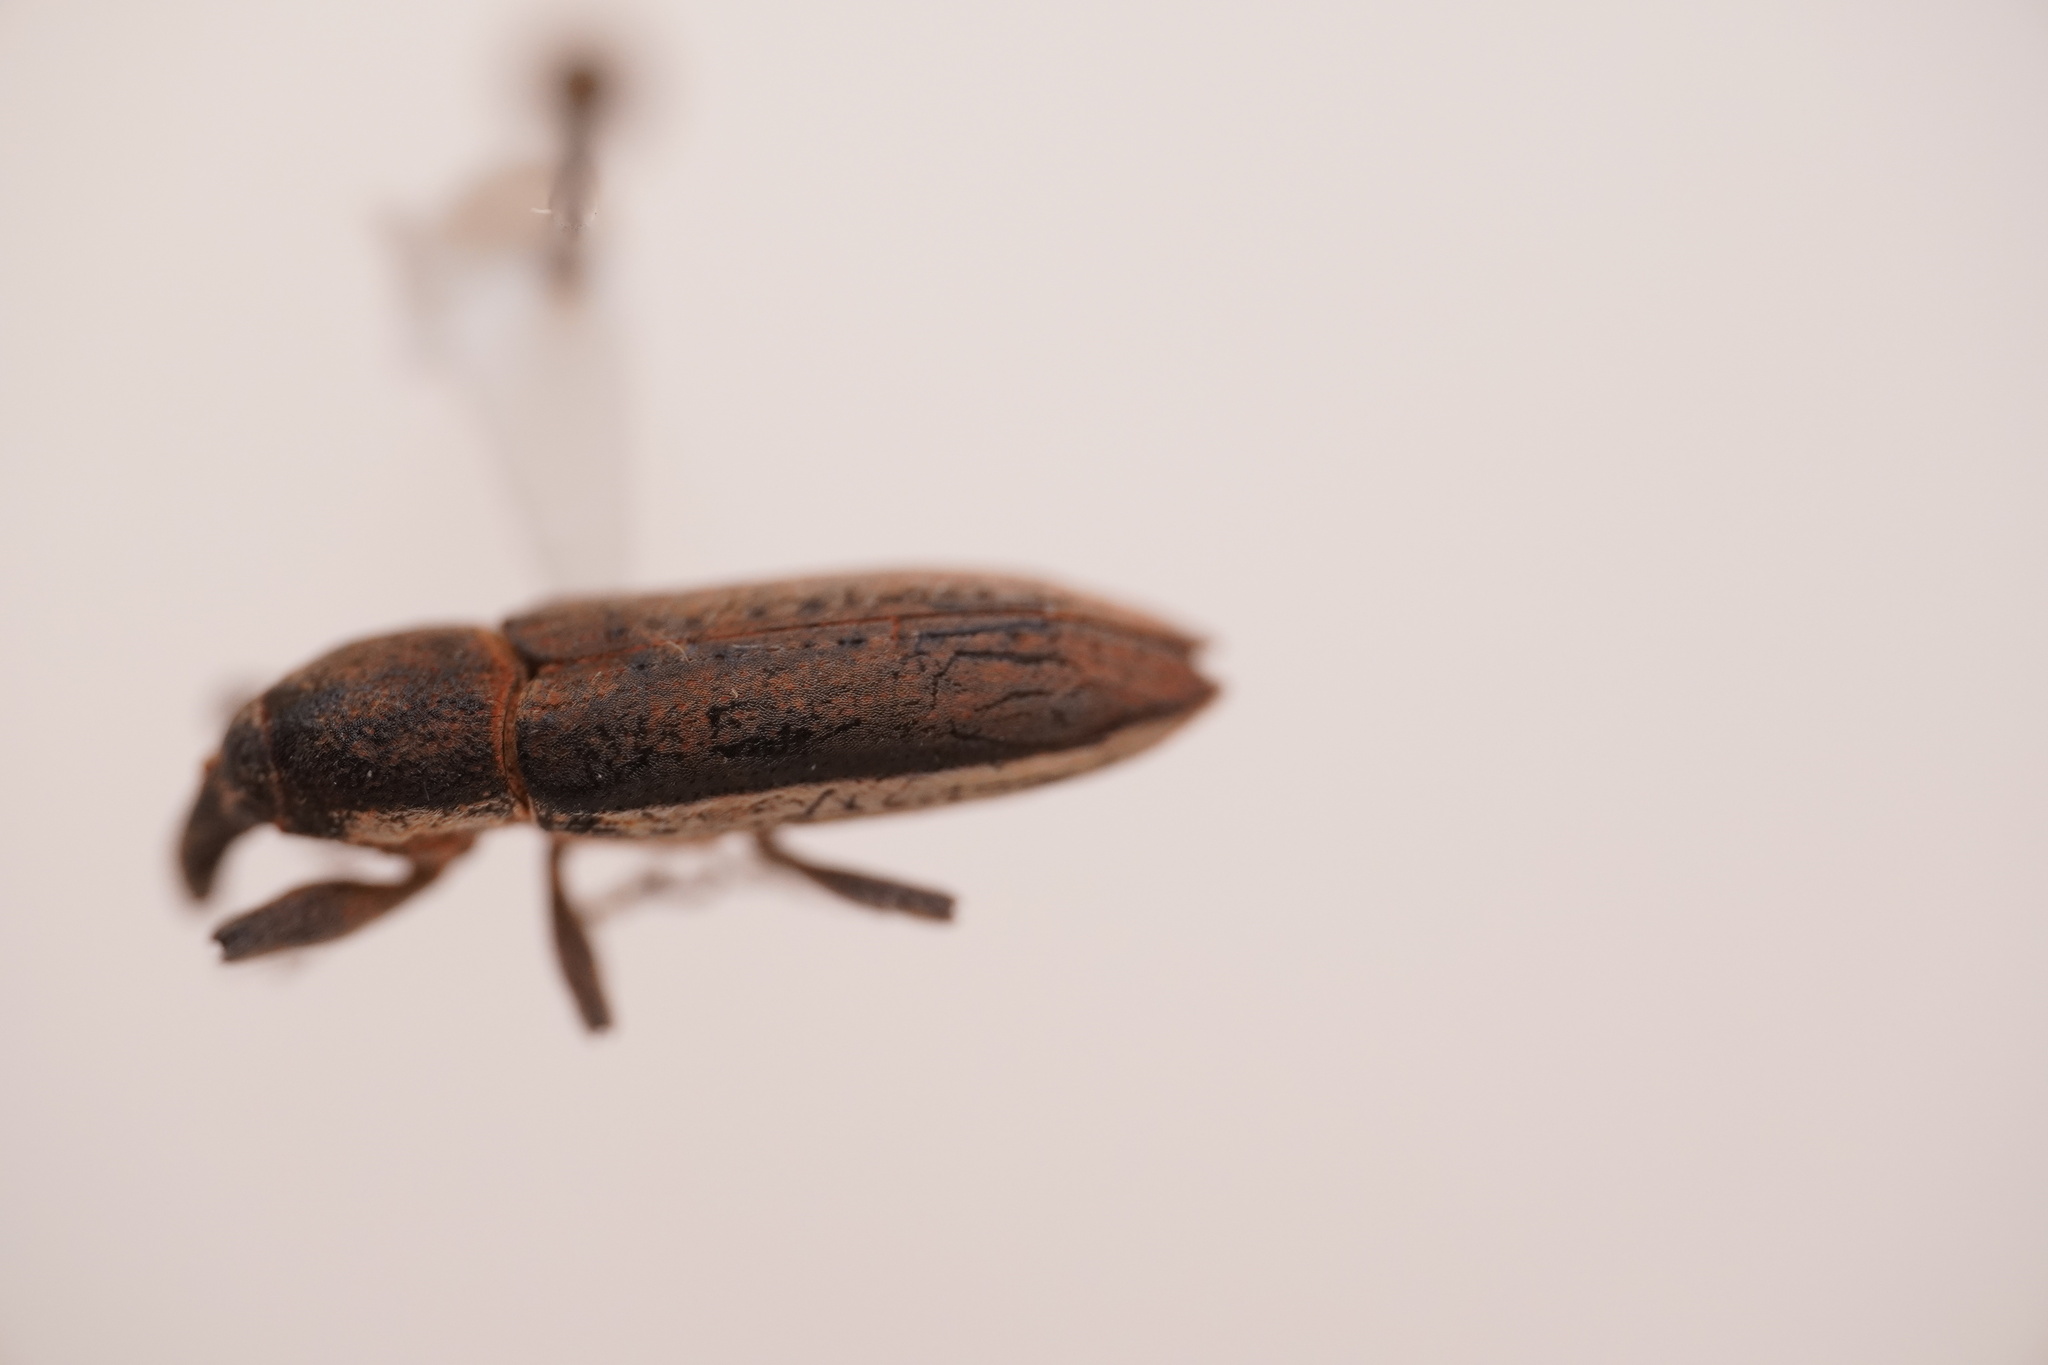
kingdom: Animalia
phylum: Arthropoda
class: Insecta
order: Coleoptera
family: Curculionidae
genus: Lixus
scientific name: Lixus albomarginatus
